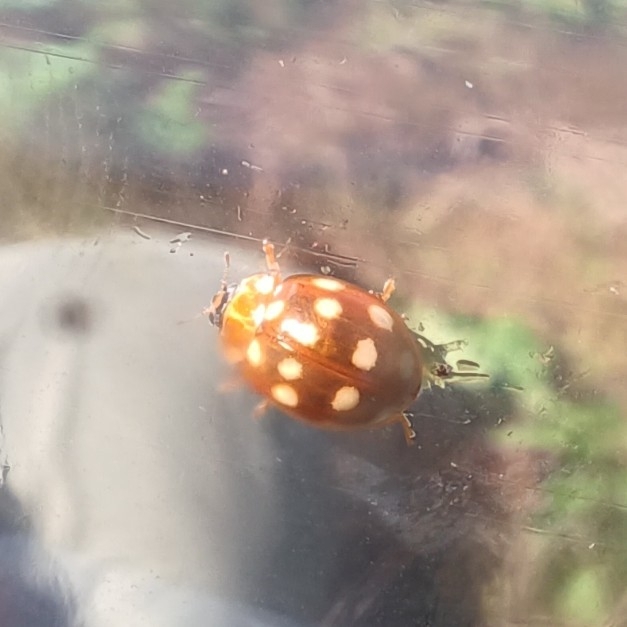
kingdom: Animalia
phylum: Arthropoda
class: Insecta
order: Coleoptera
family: Coccinellidae
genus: Calvia
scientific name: Calvia quatuordecimguttata
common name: Cream-spot ladybird
